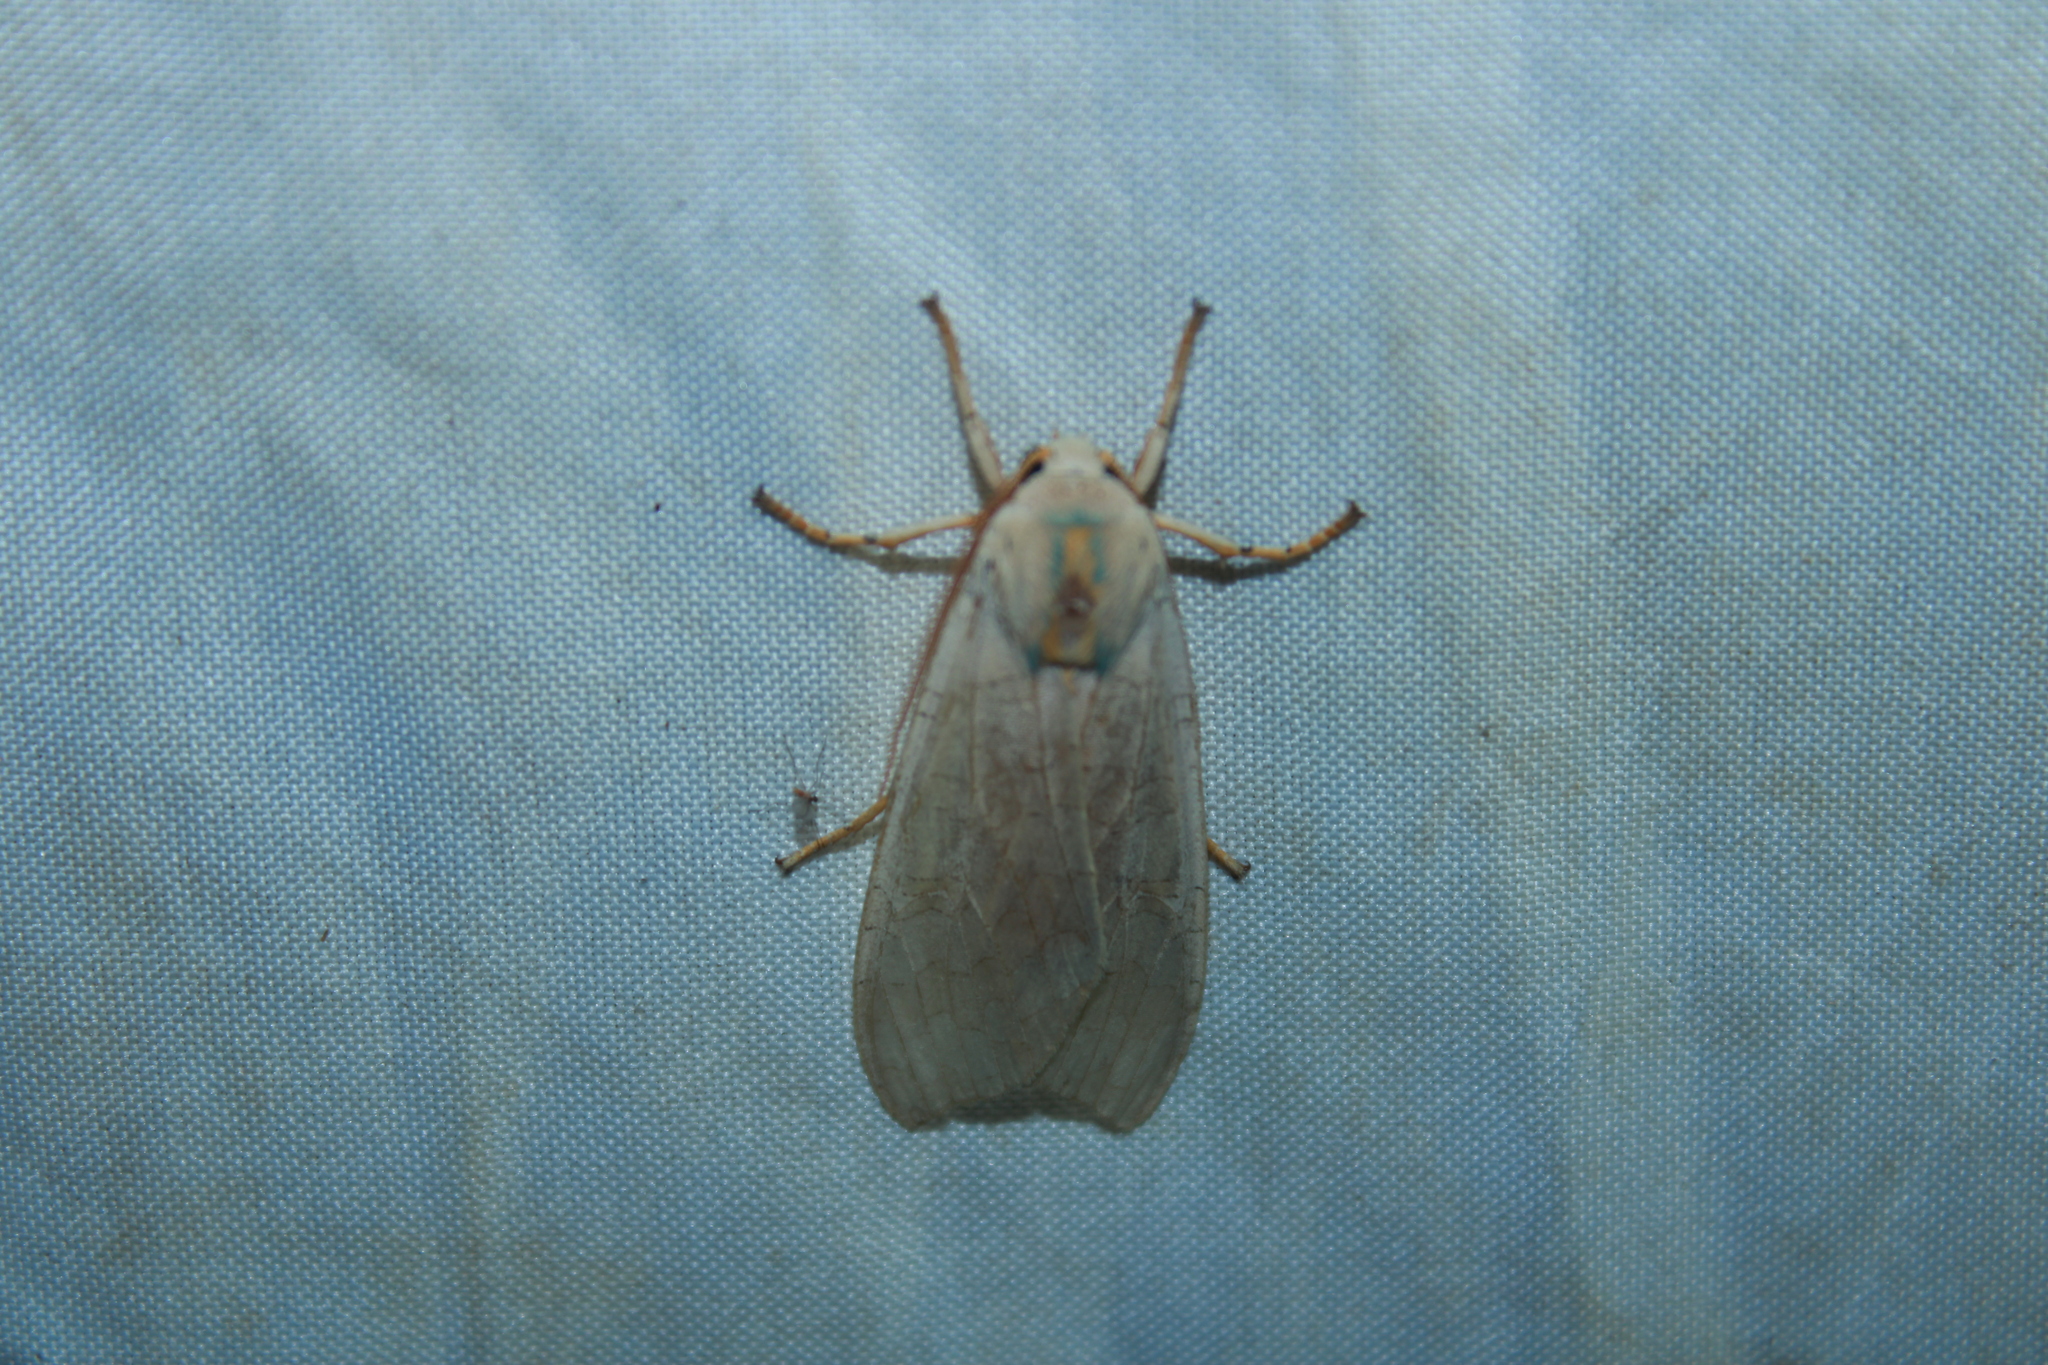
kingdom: Animalia
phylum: Arthropoda
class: Insecta
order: Lepidoptera
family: Erebidae
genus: Halysidota
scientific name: Halysidota
